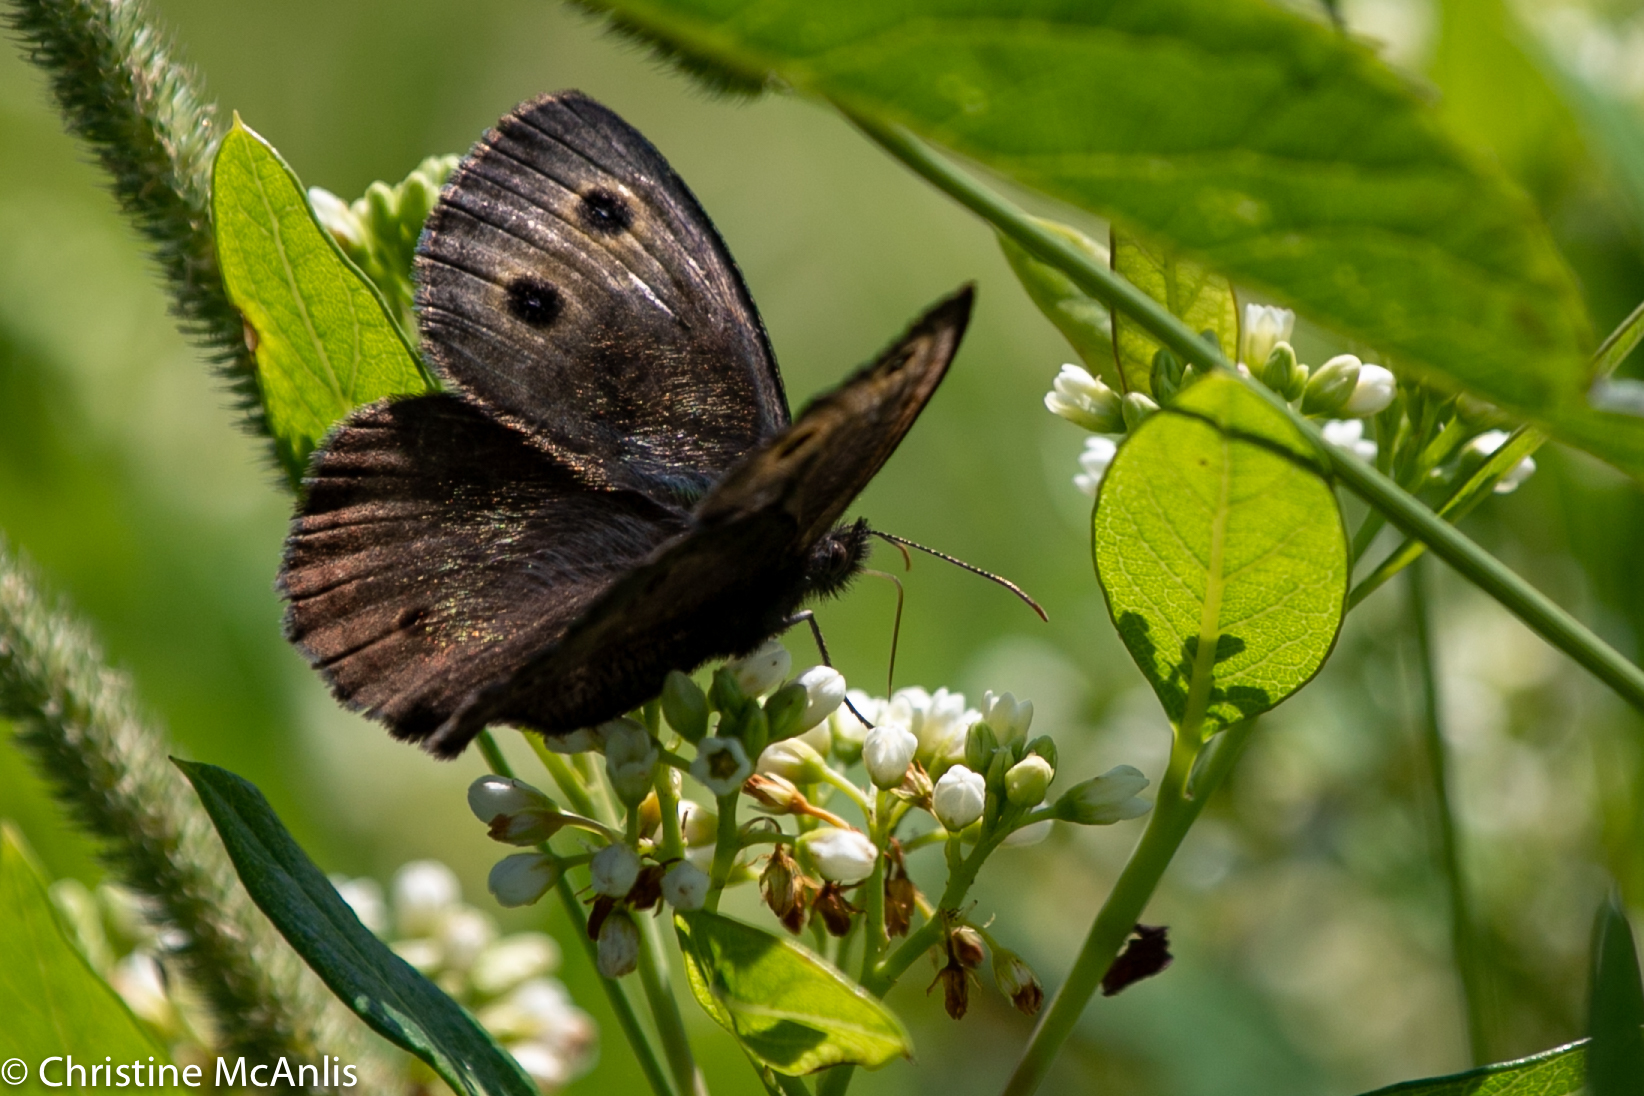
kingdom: Animalia
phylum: Arthropoda
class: Insecta
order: Lepidoptera
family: Nymphalidae
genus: Cercyonis
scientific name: Cercyonis pegala
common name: Common wood-nymph
